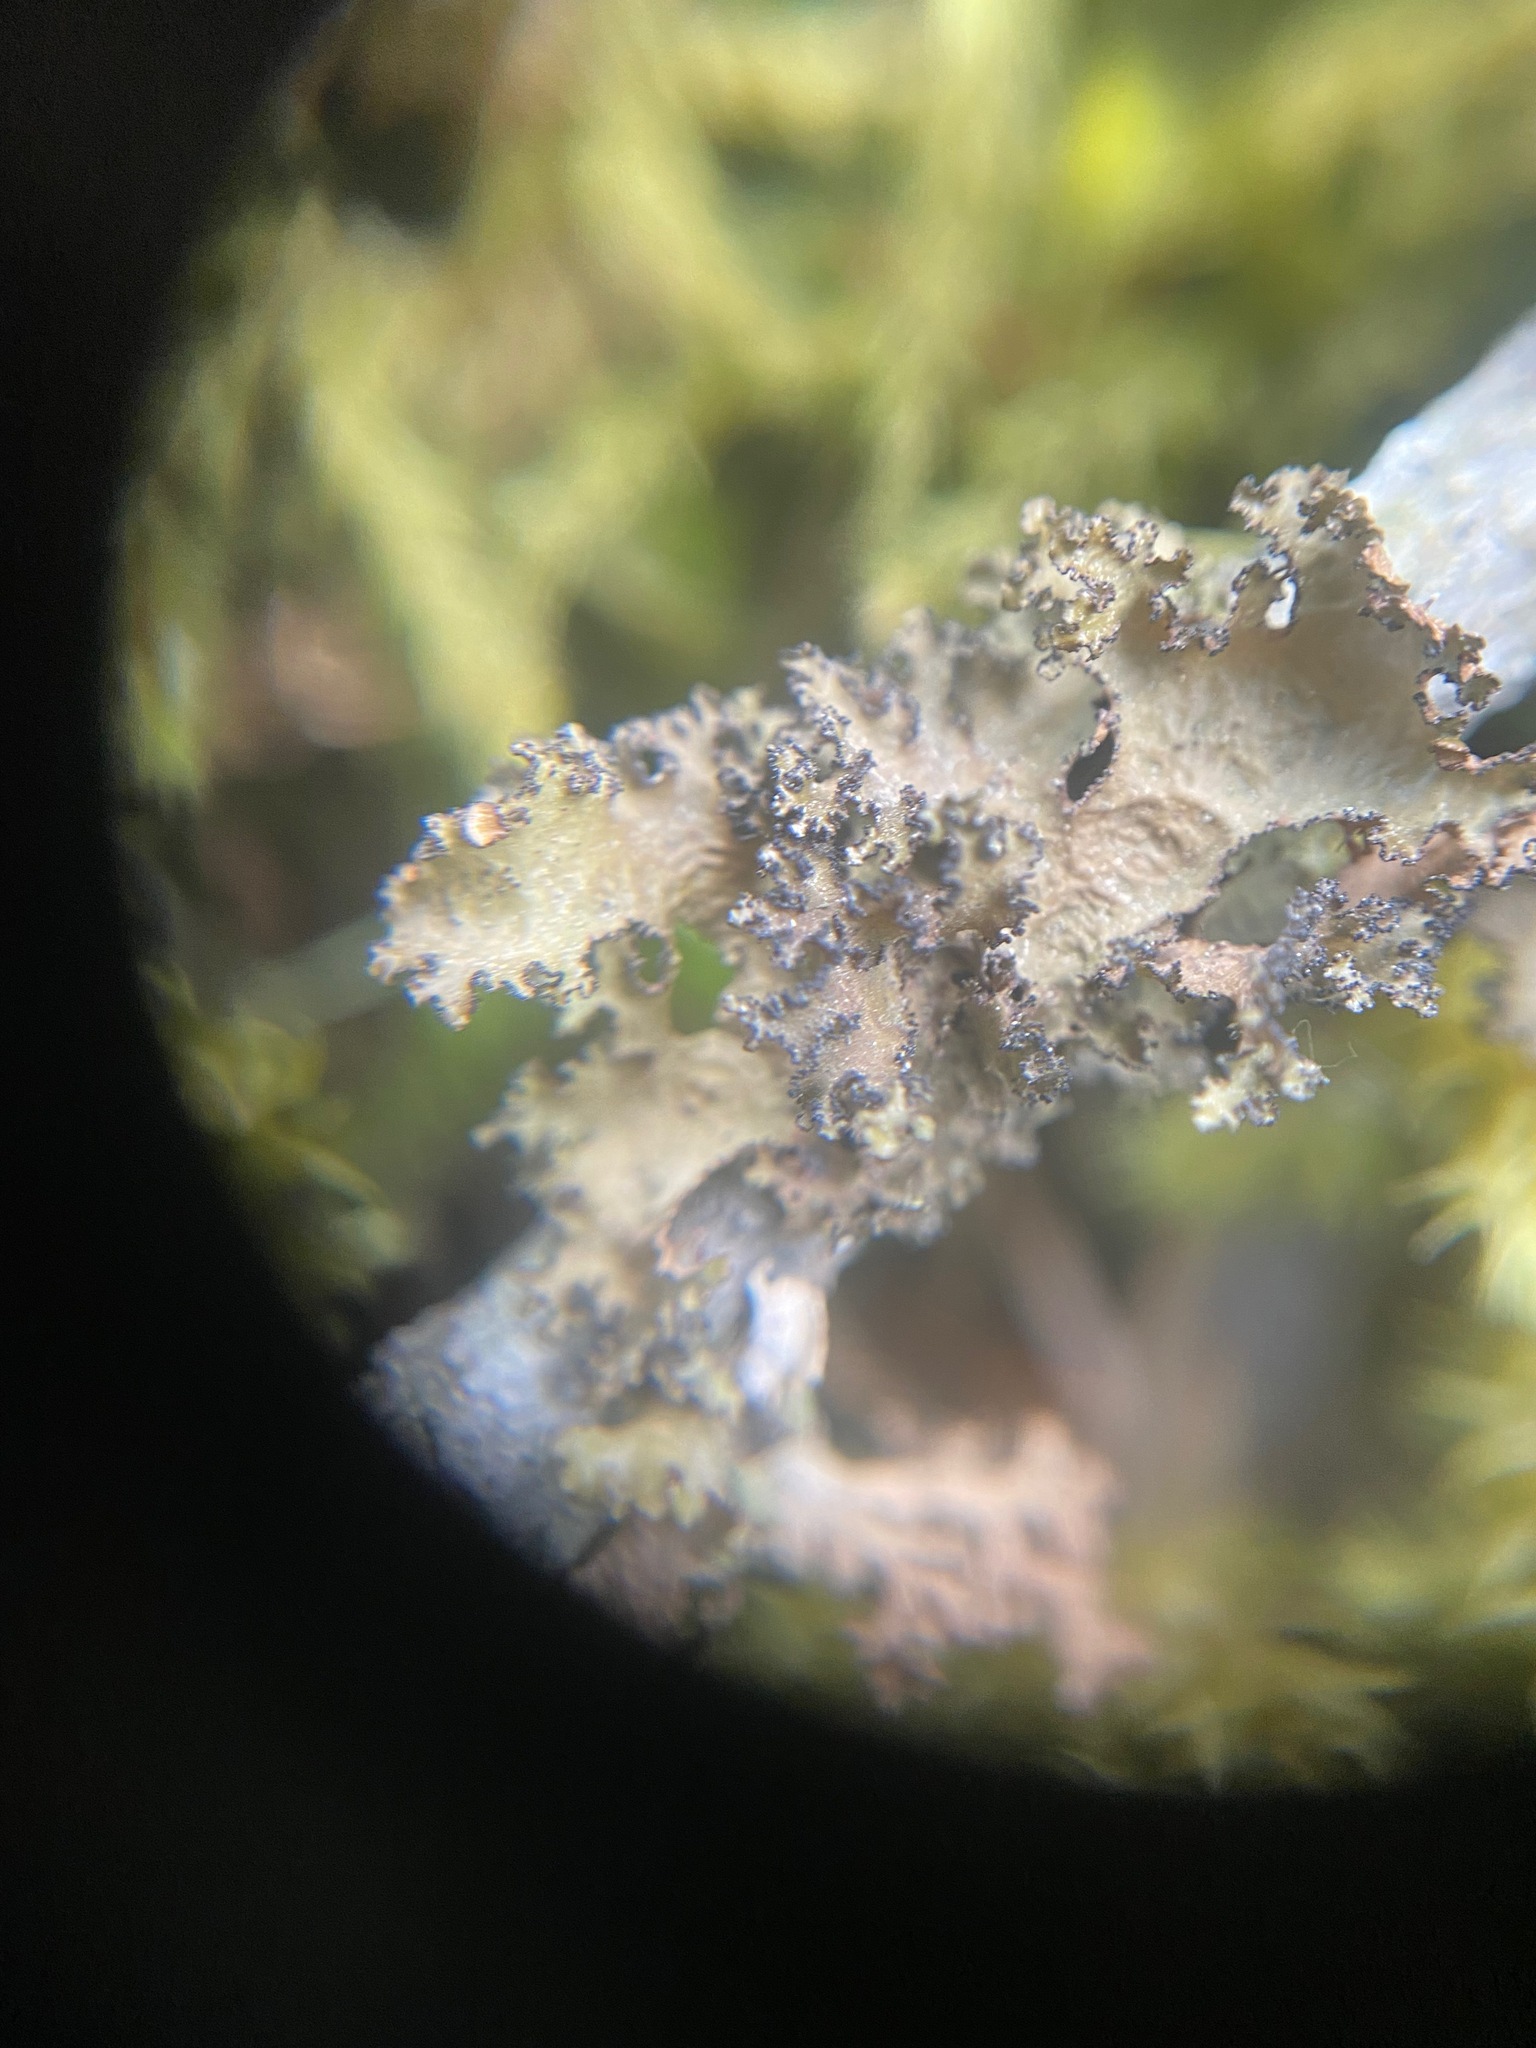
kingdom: Fungi
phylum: Ascomycota
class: Lecanoromycetes
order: Lecanorales
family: Parmeliaceae
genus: Nephromopsis
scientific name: Nephromopsis orbata
